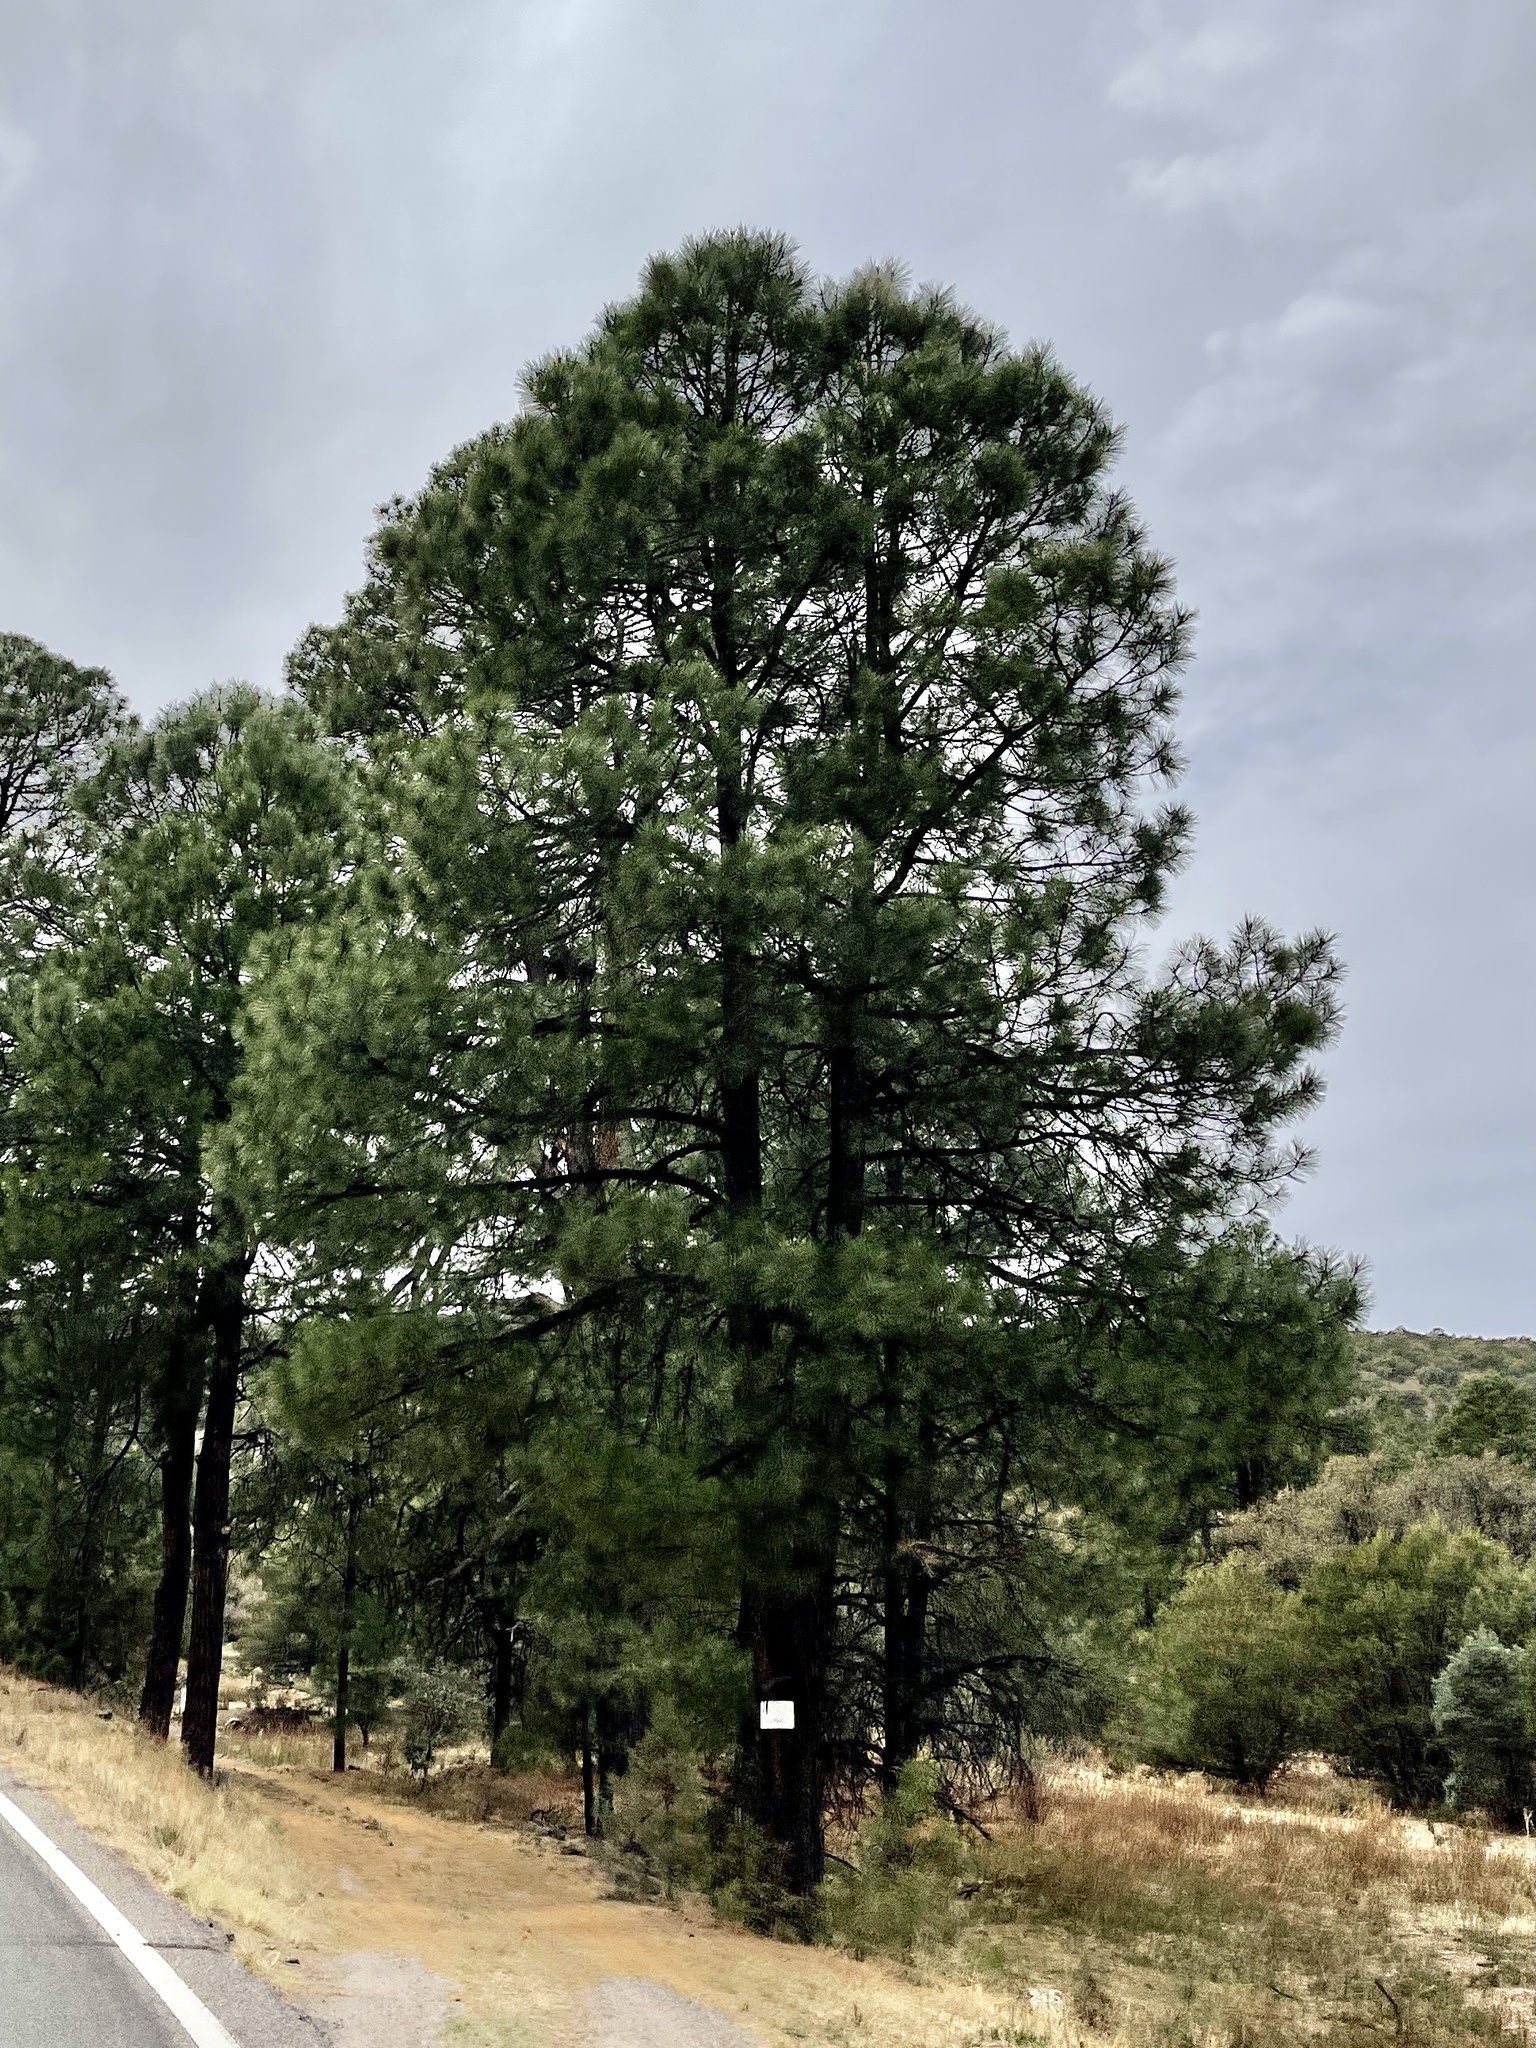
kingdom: Plantae
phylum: Tracheophyta
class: Pinopsida
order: Pinales
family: Pinaceae
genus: Pinus
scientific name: Pinus ponderosa
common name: Western yellow-pine
